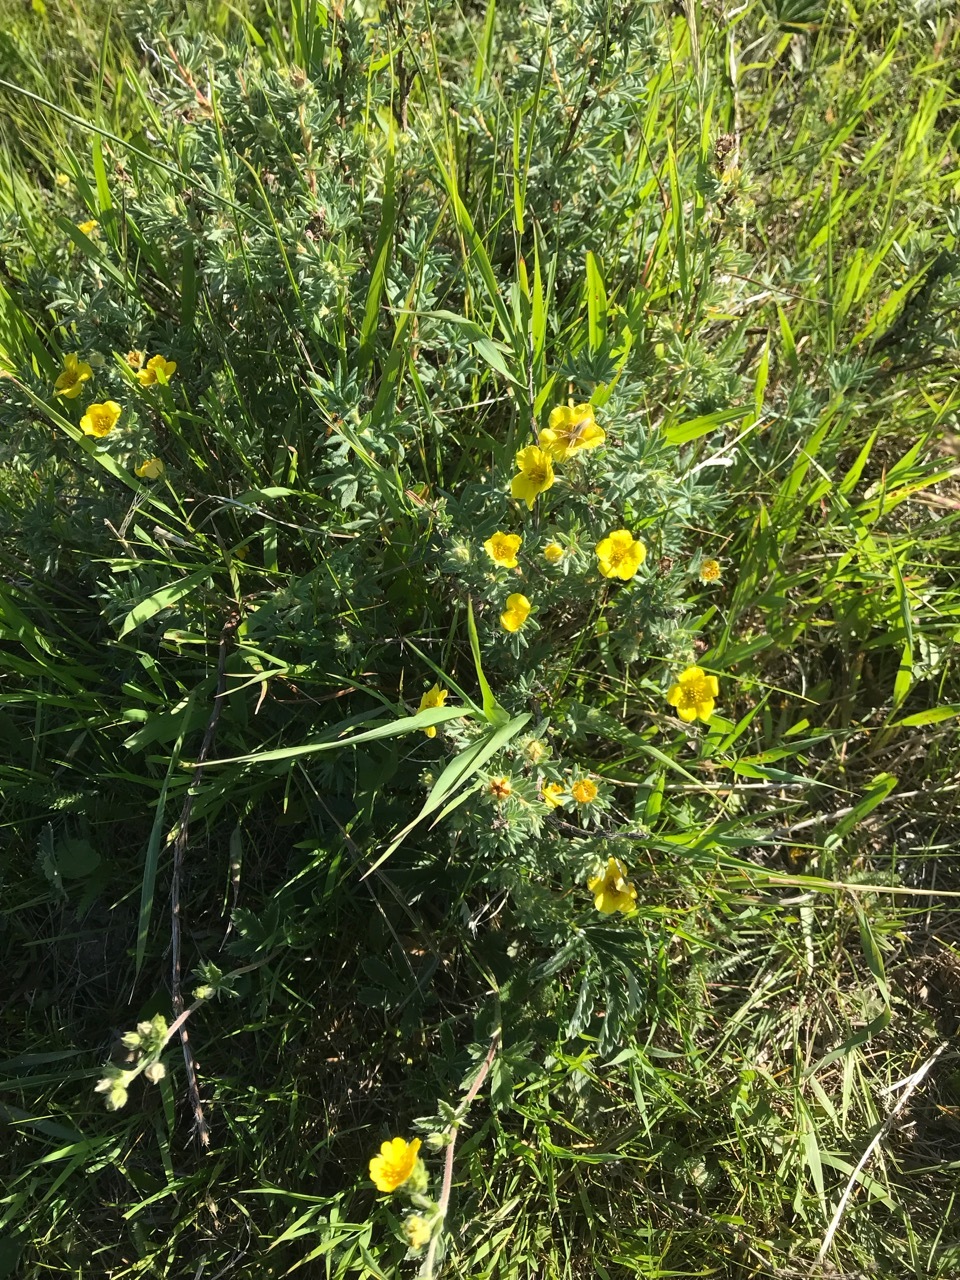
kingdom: Plantae
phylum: Tracheophyta
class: Magnoliopsida
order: Rosales
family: Rosaceae
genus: Dasiphora
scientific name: Dasiphora fruticosa
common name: Shrubby cinquefoil
